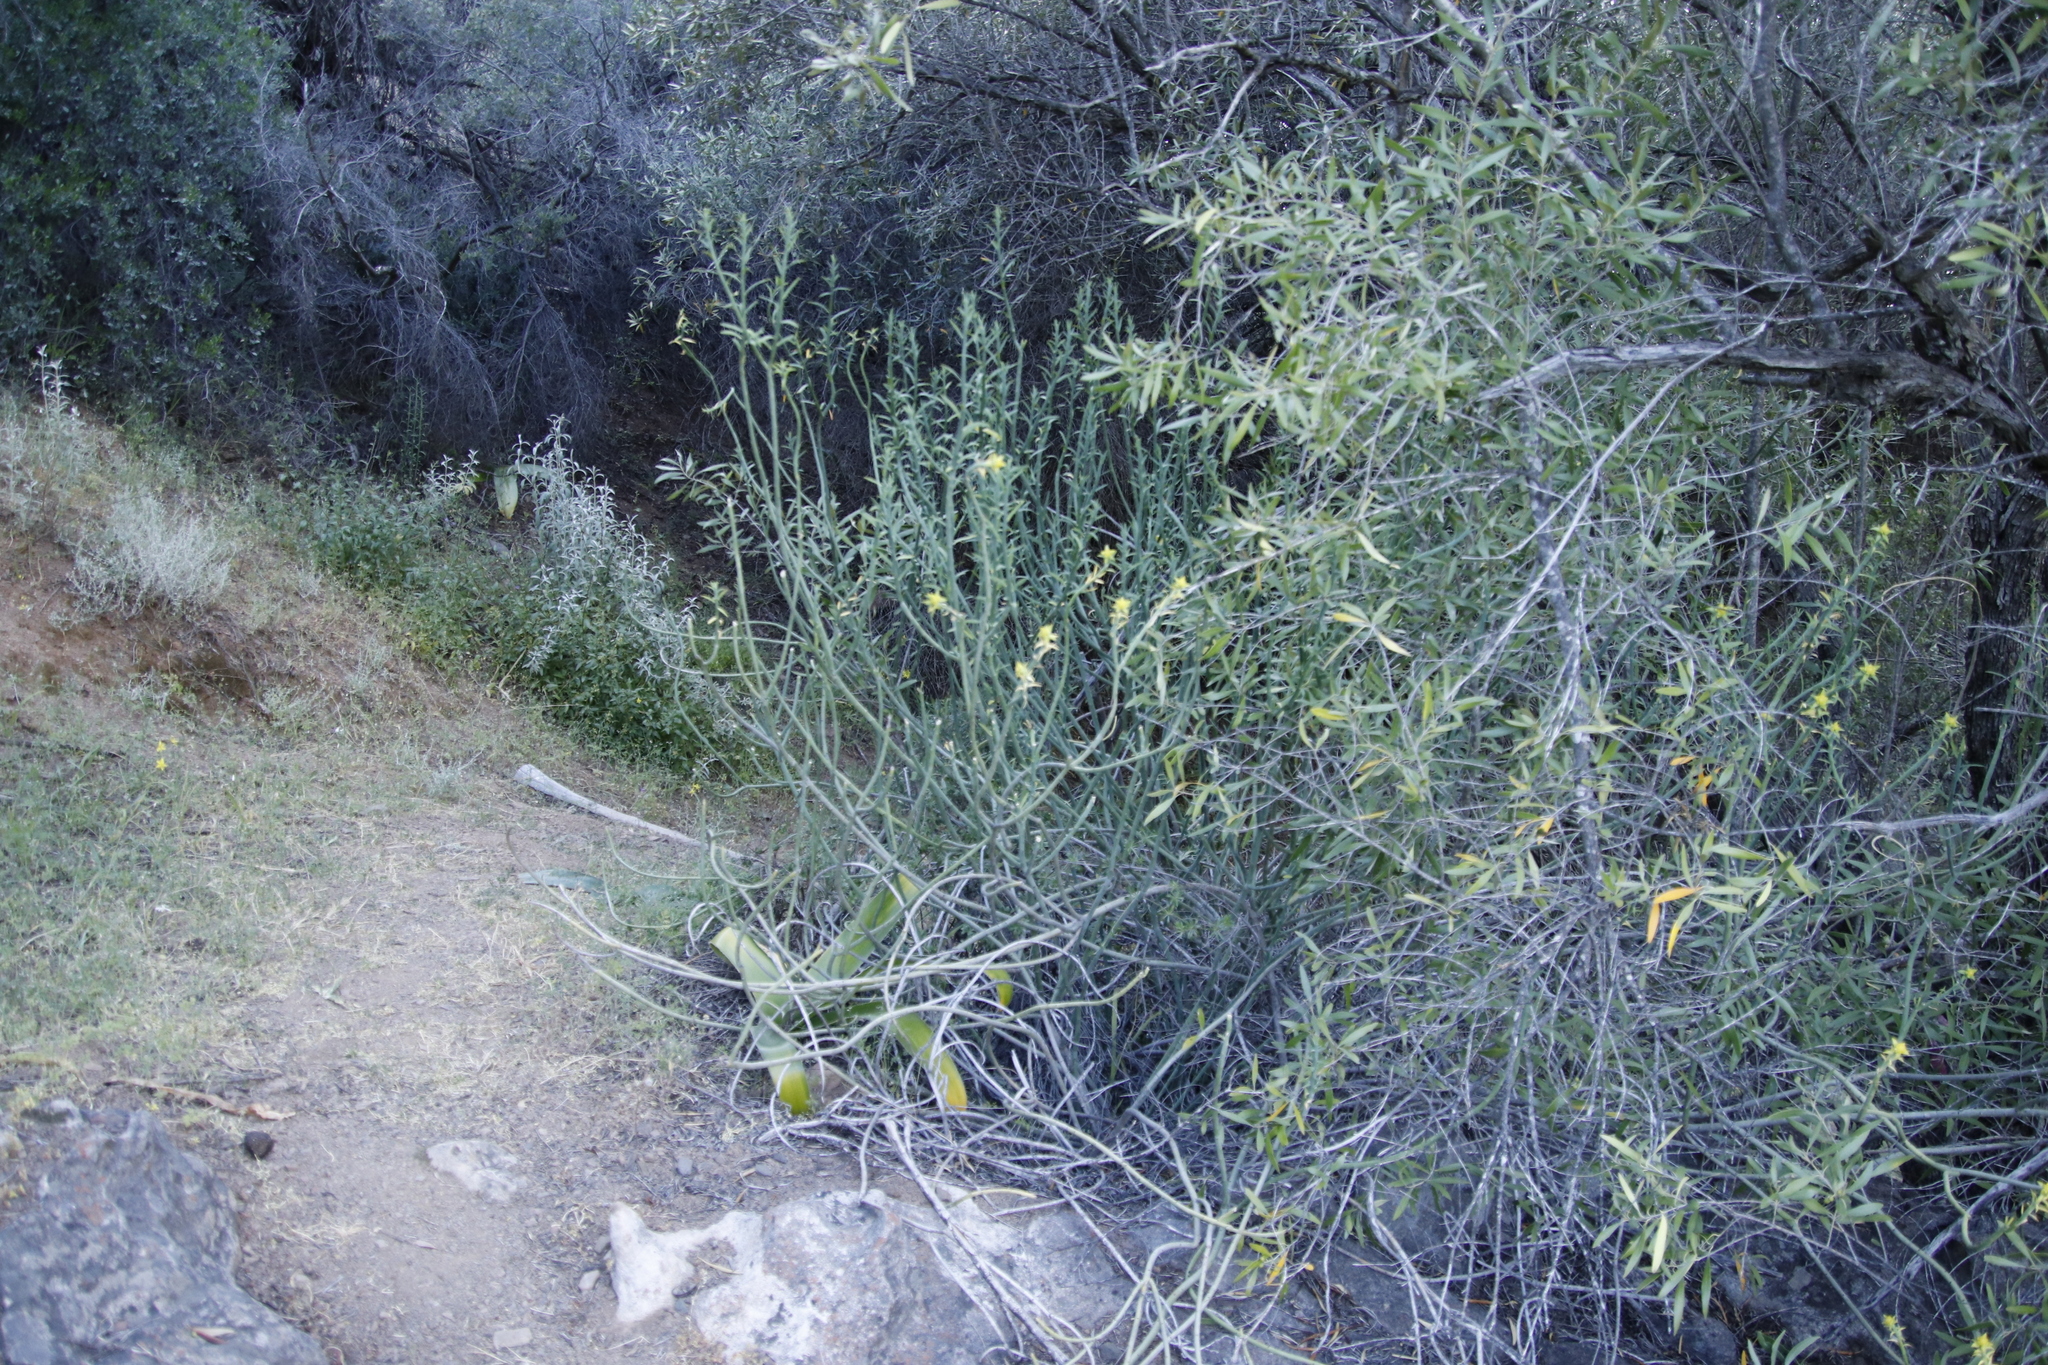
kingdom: Plantae
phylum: Tracheophyta
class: Magnoliopsida
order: Malpighiales
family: Euphorbiaceae
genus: Euphorbia
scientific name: Euphorbia mauritanica
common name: Jackal's-food
